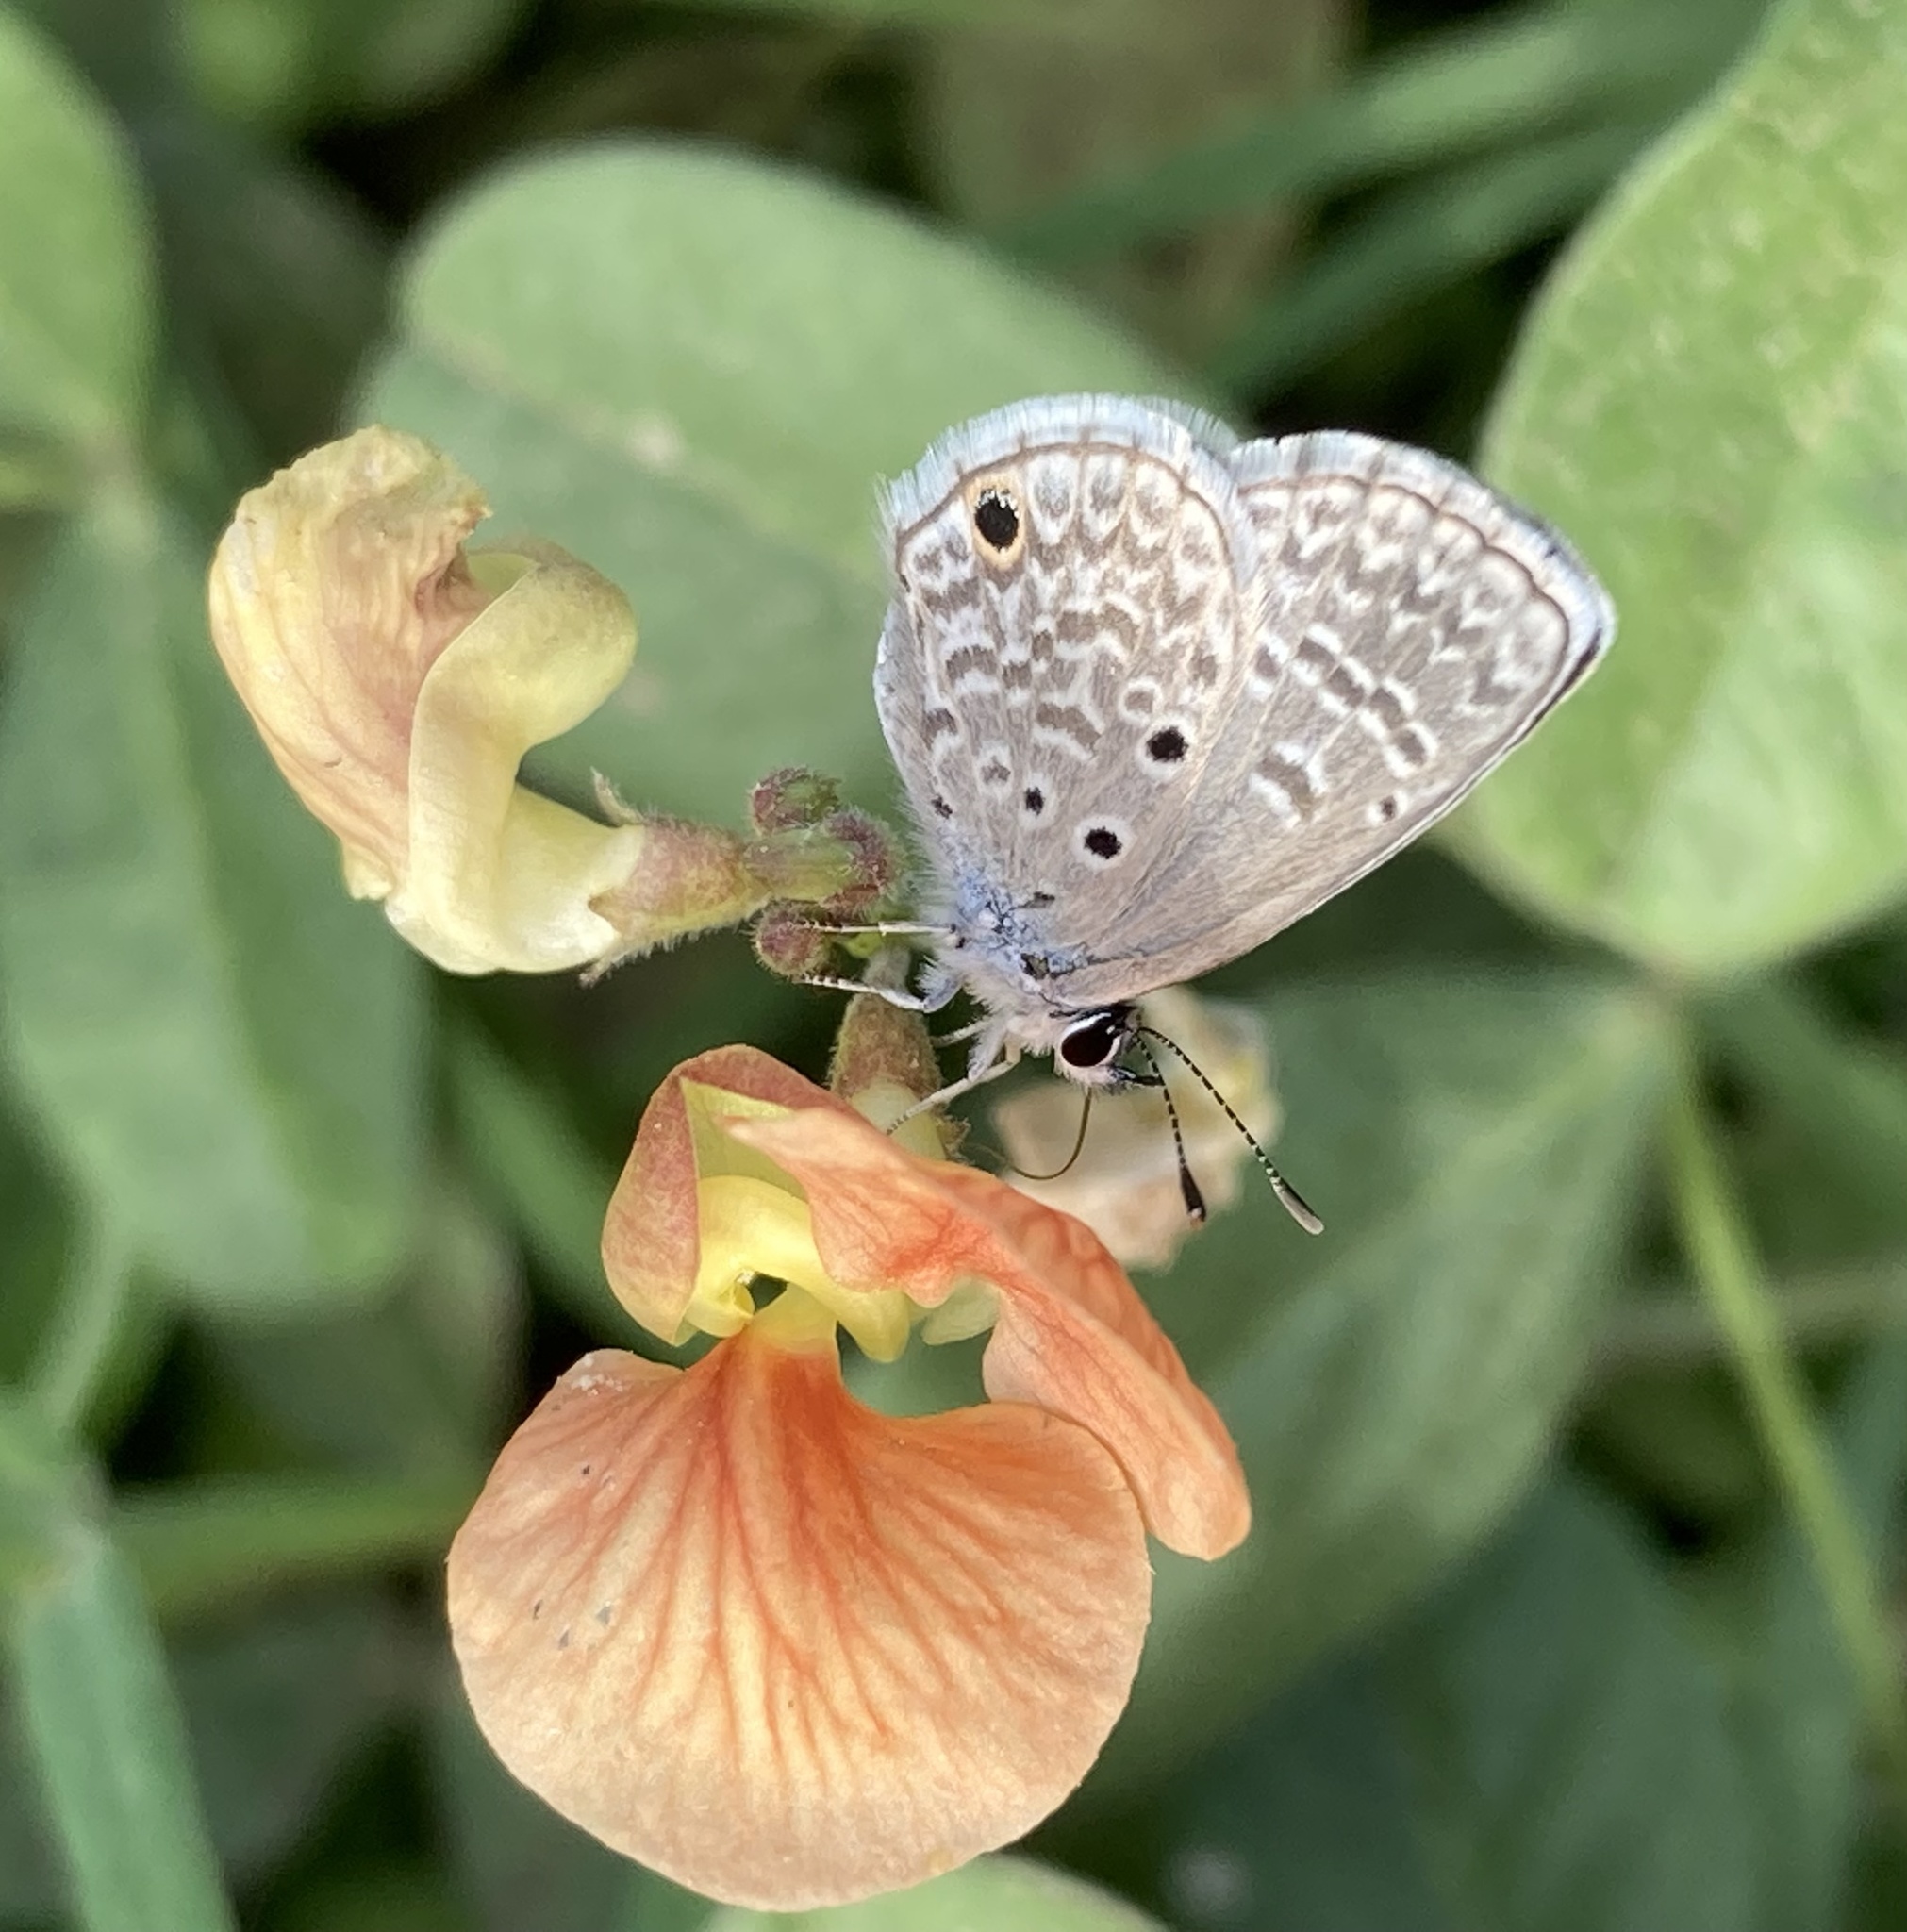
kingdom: Animalia
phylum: Arthropoda
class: Insecta
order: Lepidoptera
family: Lycaenidae
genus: Hemiargus
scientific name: Hemiargus hanno
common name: Common blue
